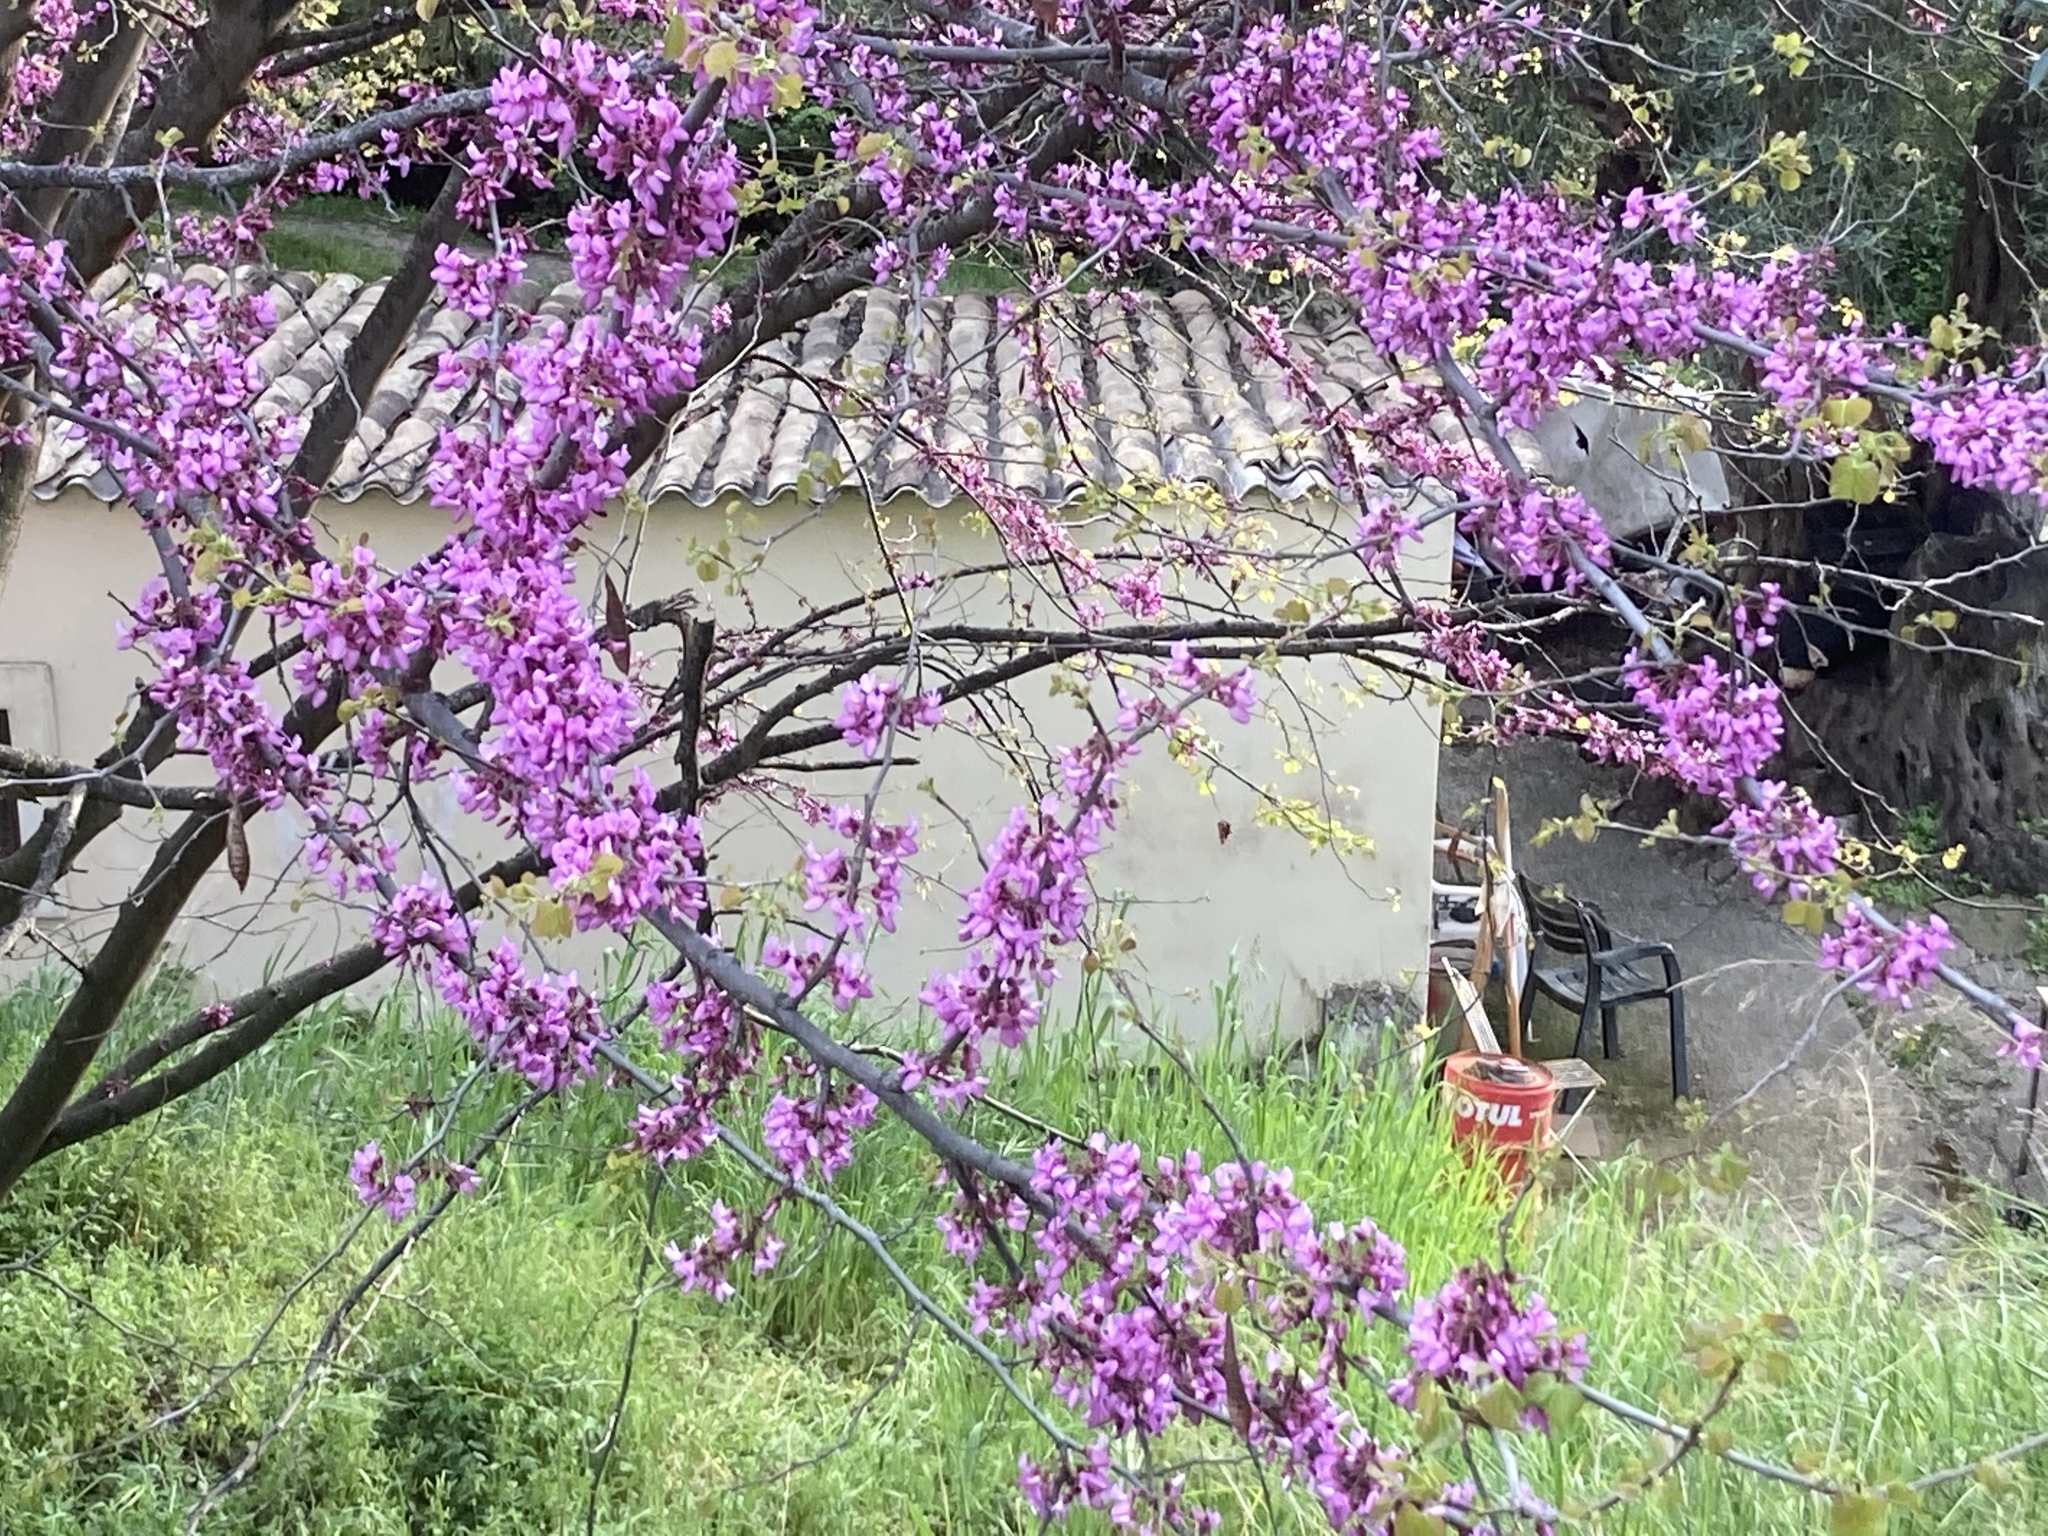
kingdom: Plantae
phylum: Tracheophyta
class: Magnoliopsida
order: Fabales
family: Fabaceae
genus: Cercis
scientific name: Cercis siliquastrum
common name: Judas tree
